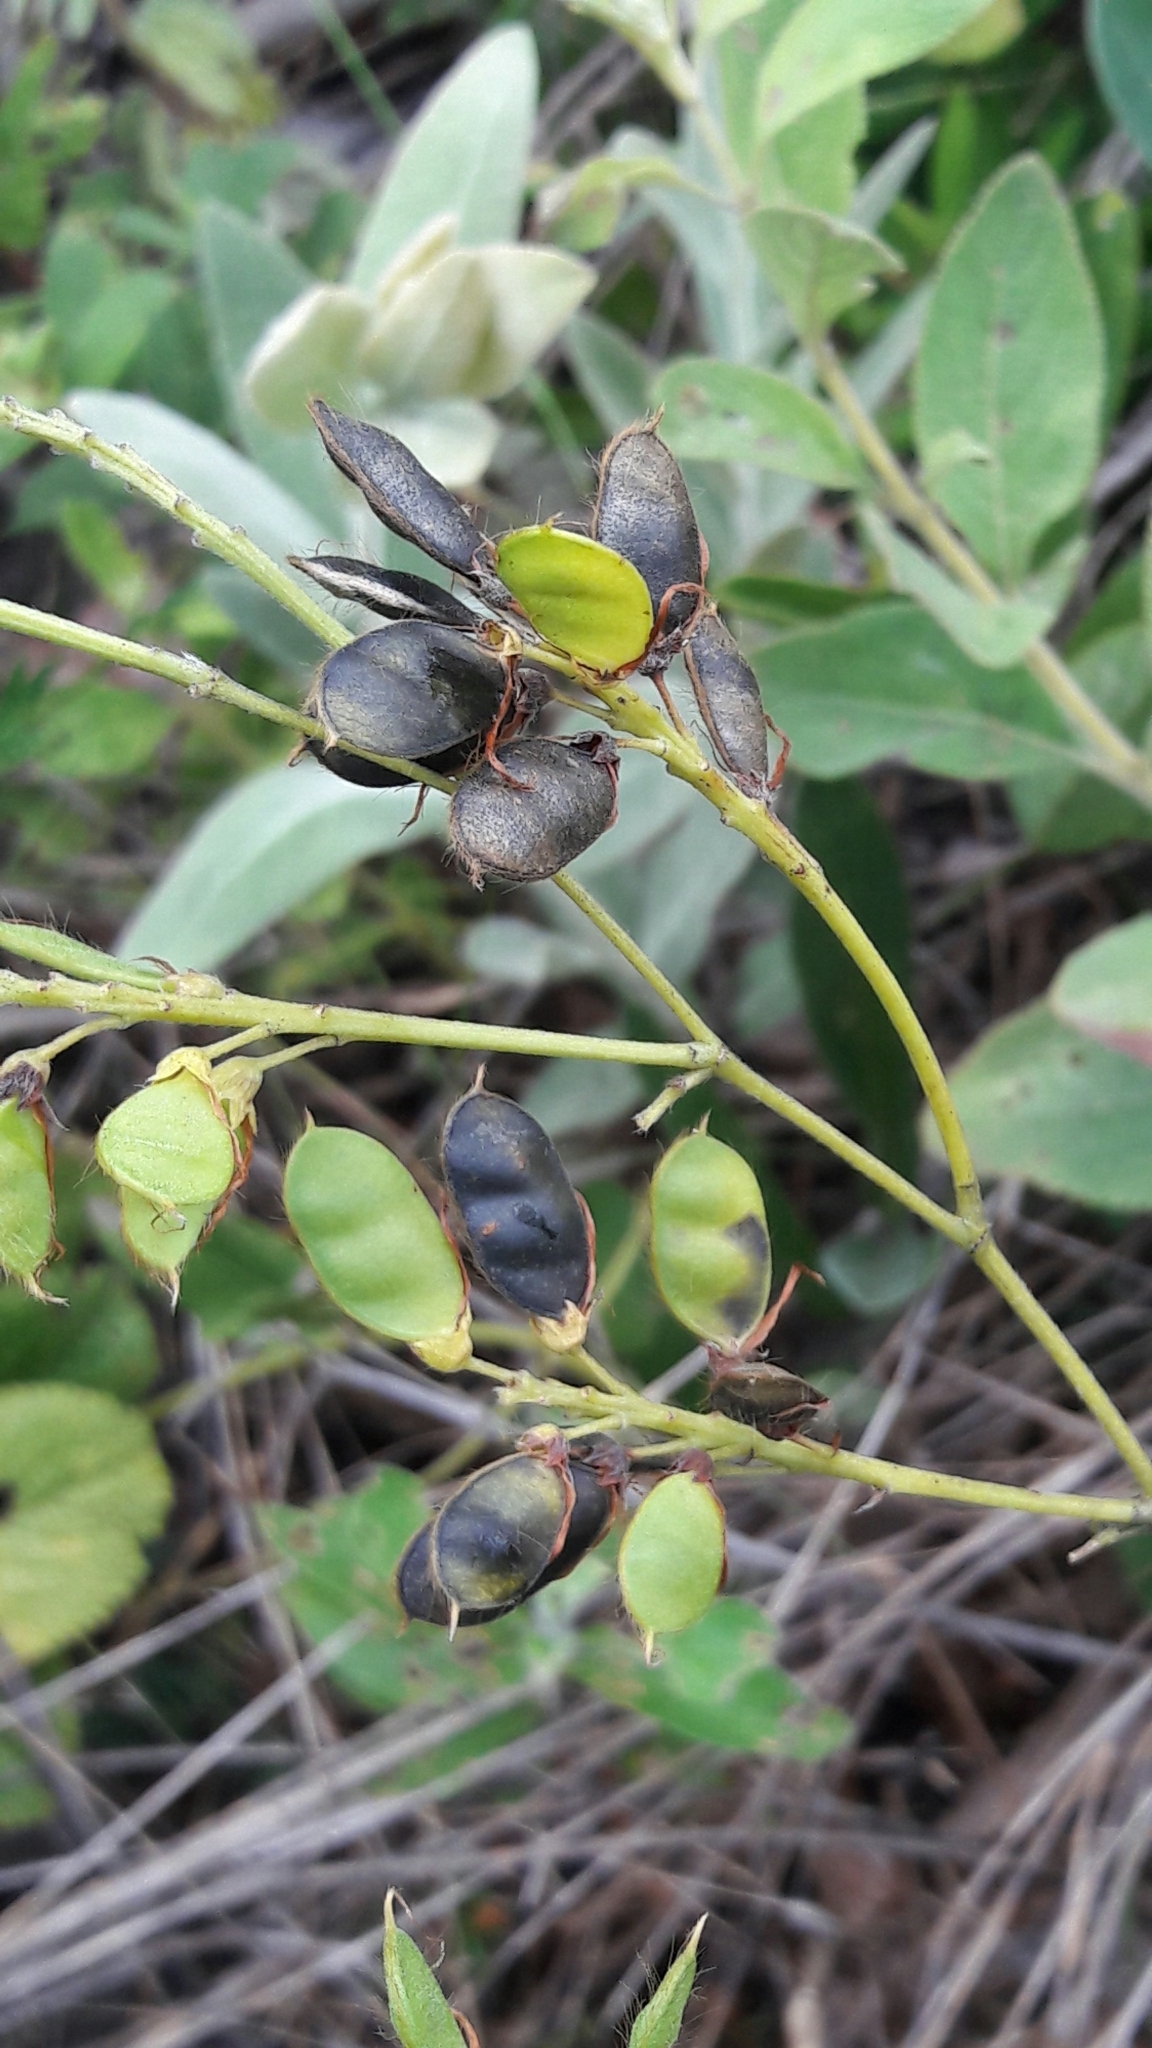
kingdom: Plantae
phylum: Tracheophyta
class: Magnoliopsida
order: Fabales
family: Fabaceae
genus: Eriosema
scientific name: Eriosema glabrum
